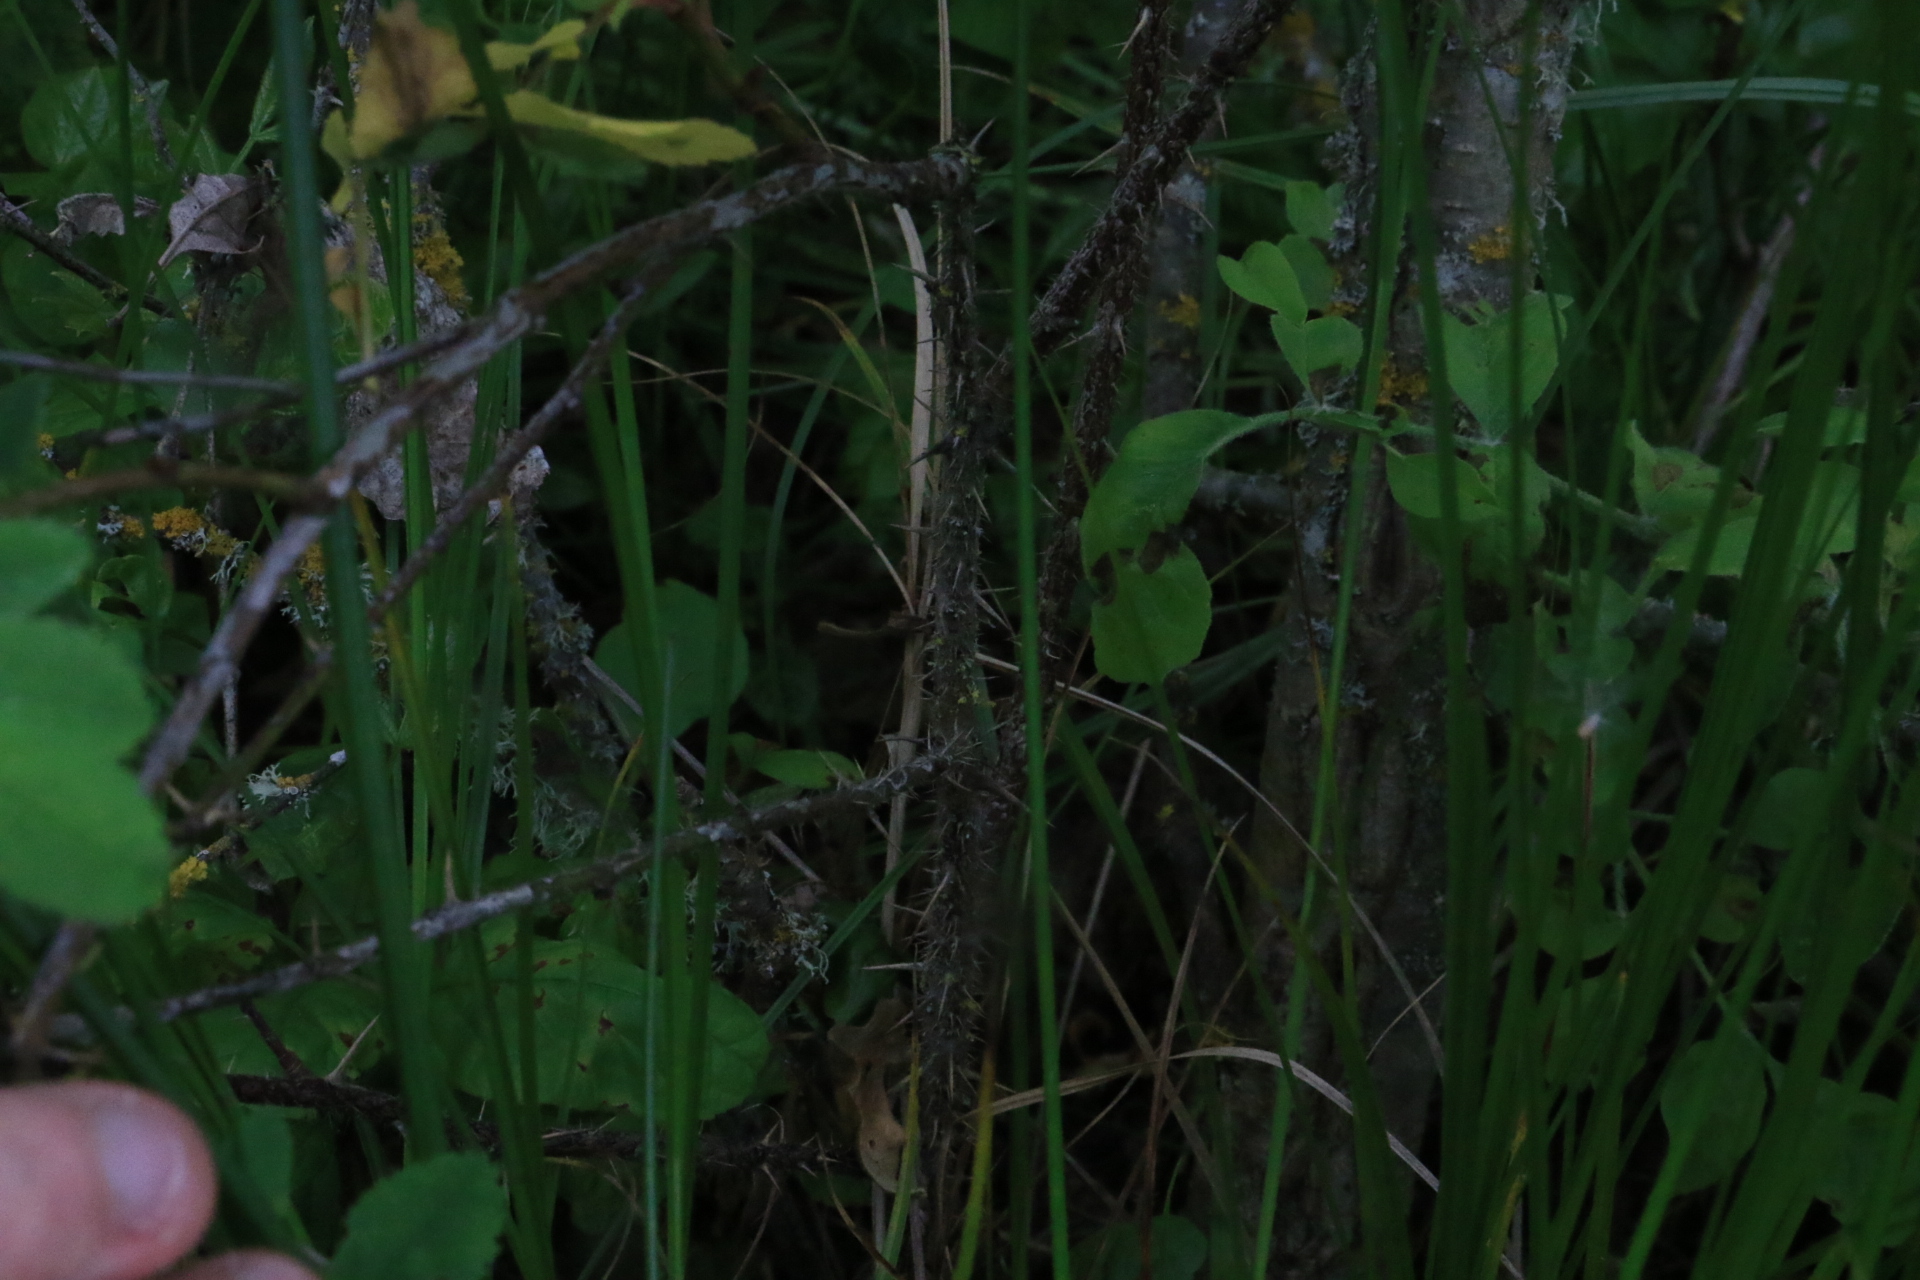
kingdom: Plantae
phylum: Tracheophyta
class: Magnoliopsida
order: Rosales
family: Rosaceae
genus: Rosa
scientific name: Rosa nutkana
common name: Nootka rose
